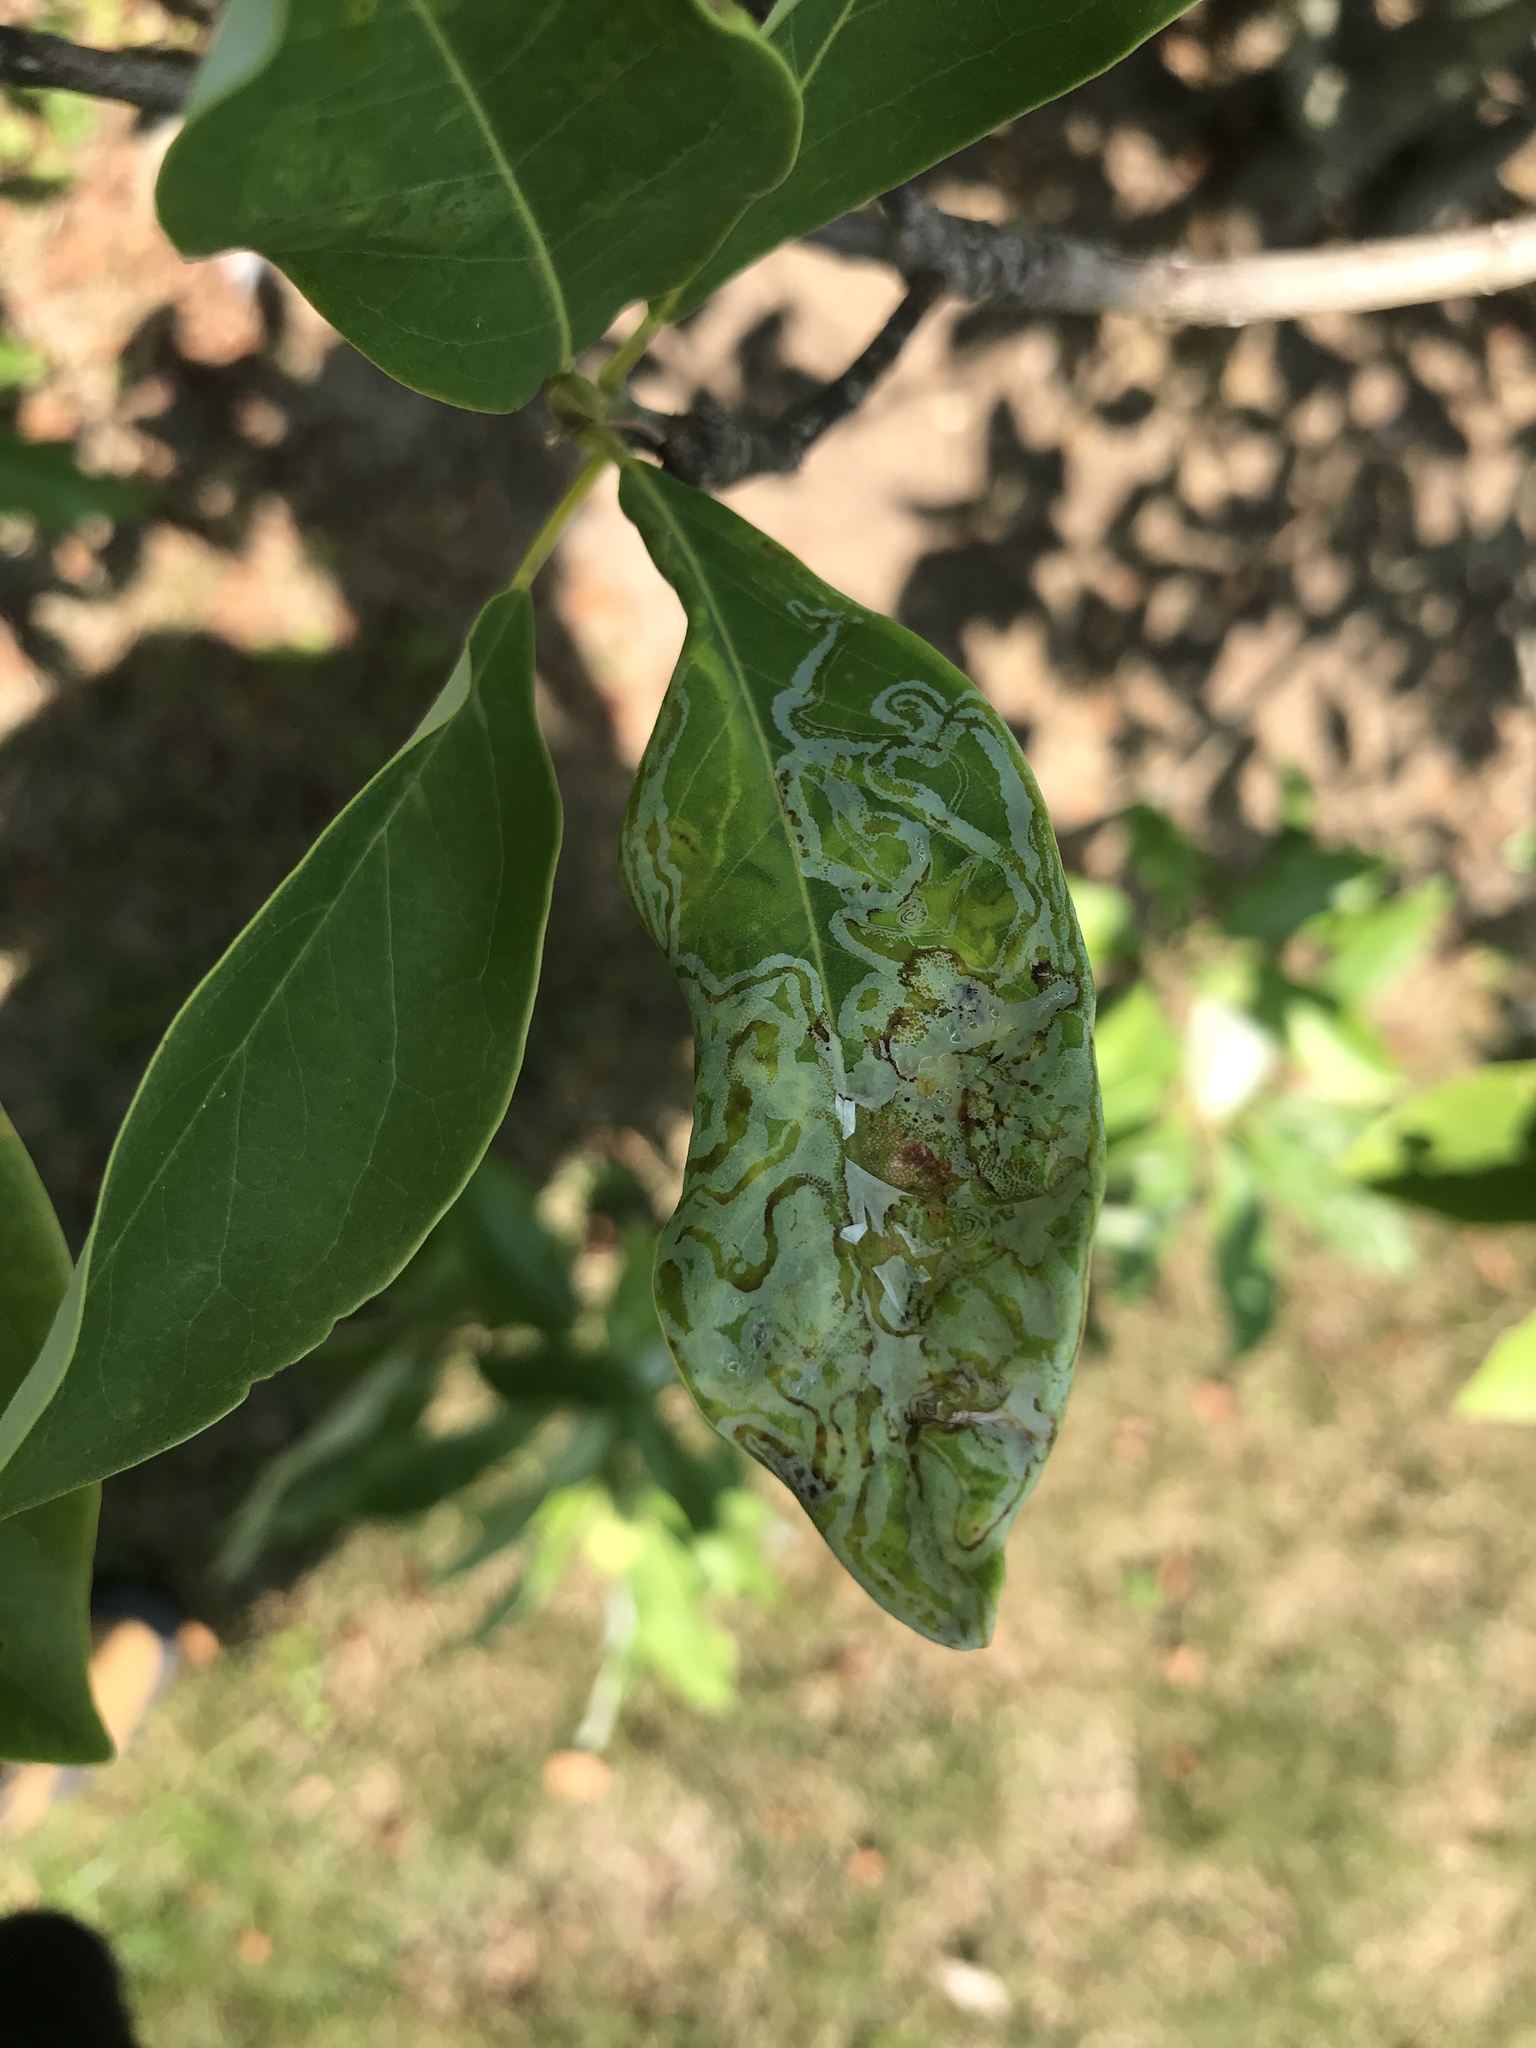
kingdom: Animalia
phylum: Arthropoda
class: Insecta
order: Lepidoptera
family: Gracillariidae
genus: Phyllocnistis
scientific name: Phyllocnistis liriodendronella
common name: Tulip tree leaf miner
